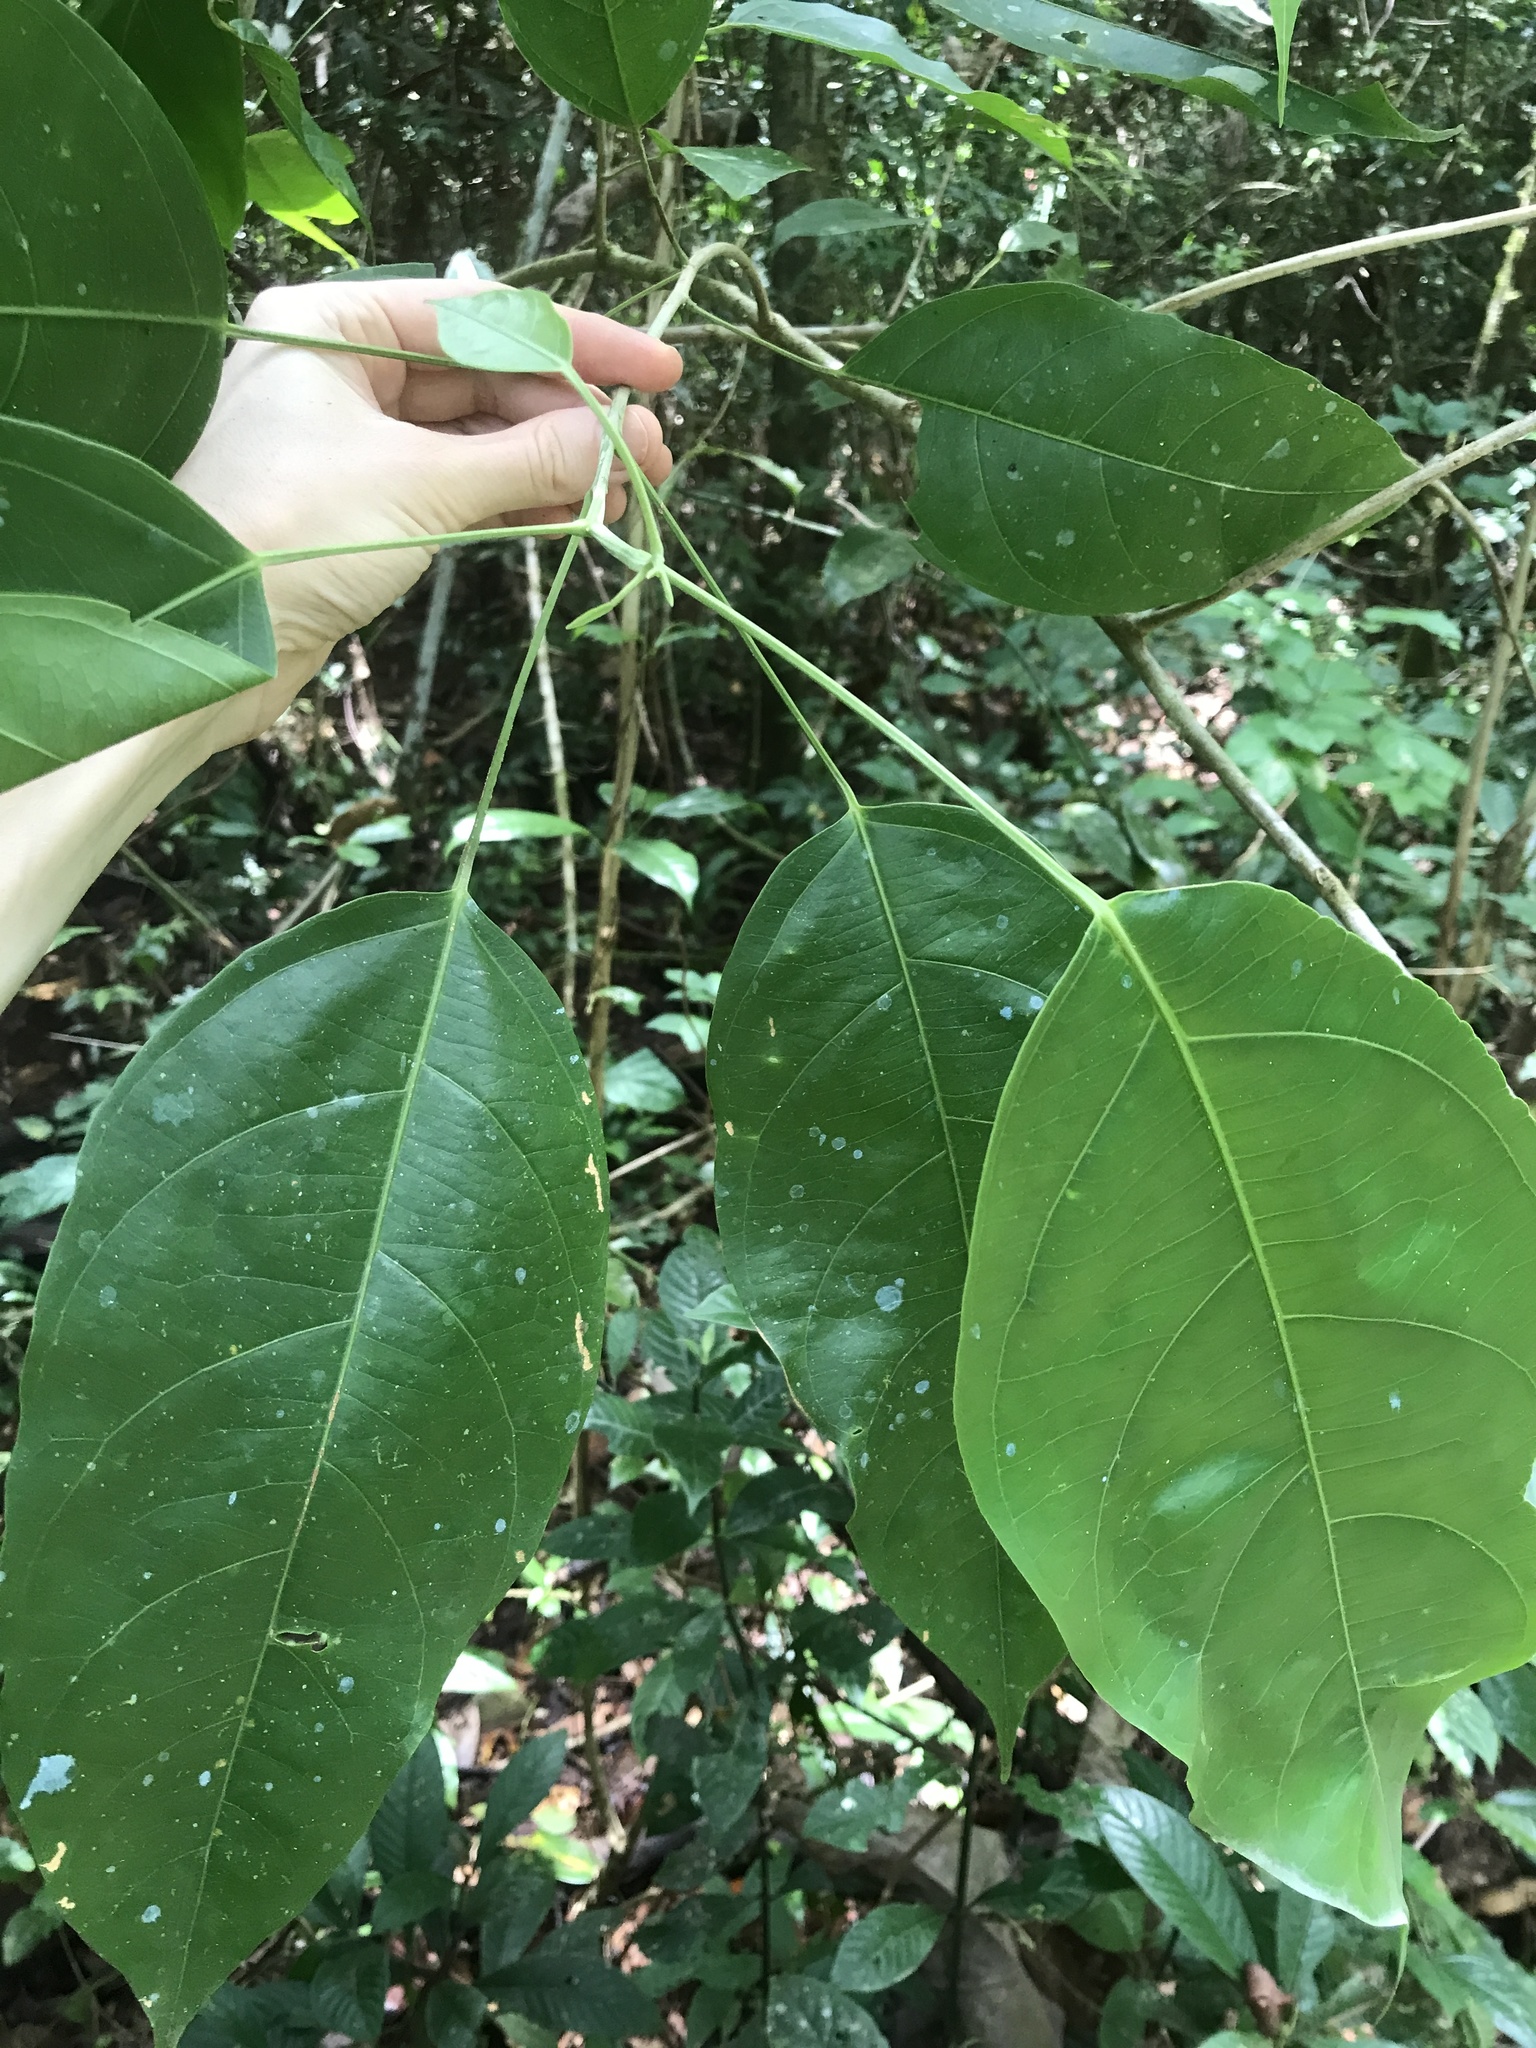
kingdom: Plantae
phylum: Tracheophyta
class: Magnoliopsida
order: Malpighiales
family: Achariaceae
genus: Lindackeria
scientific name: Lindackeria laurina
